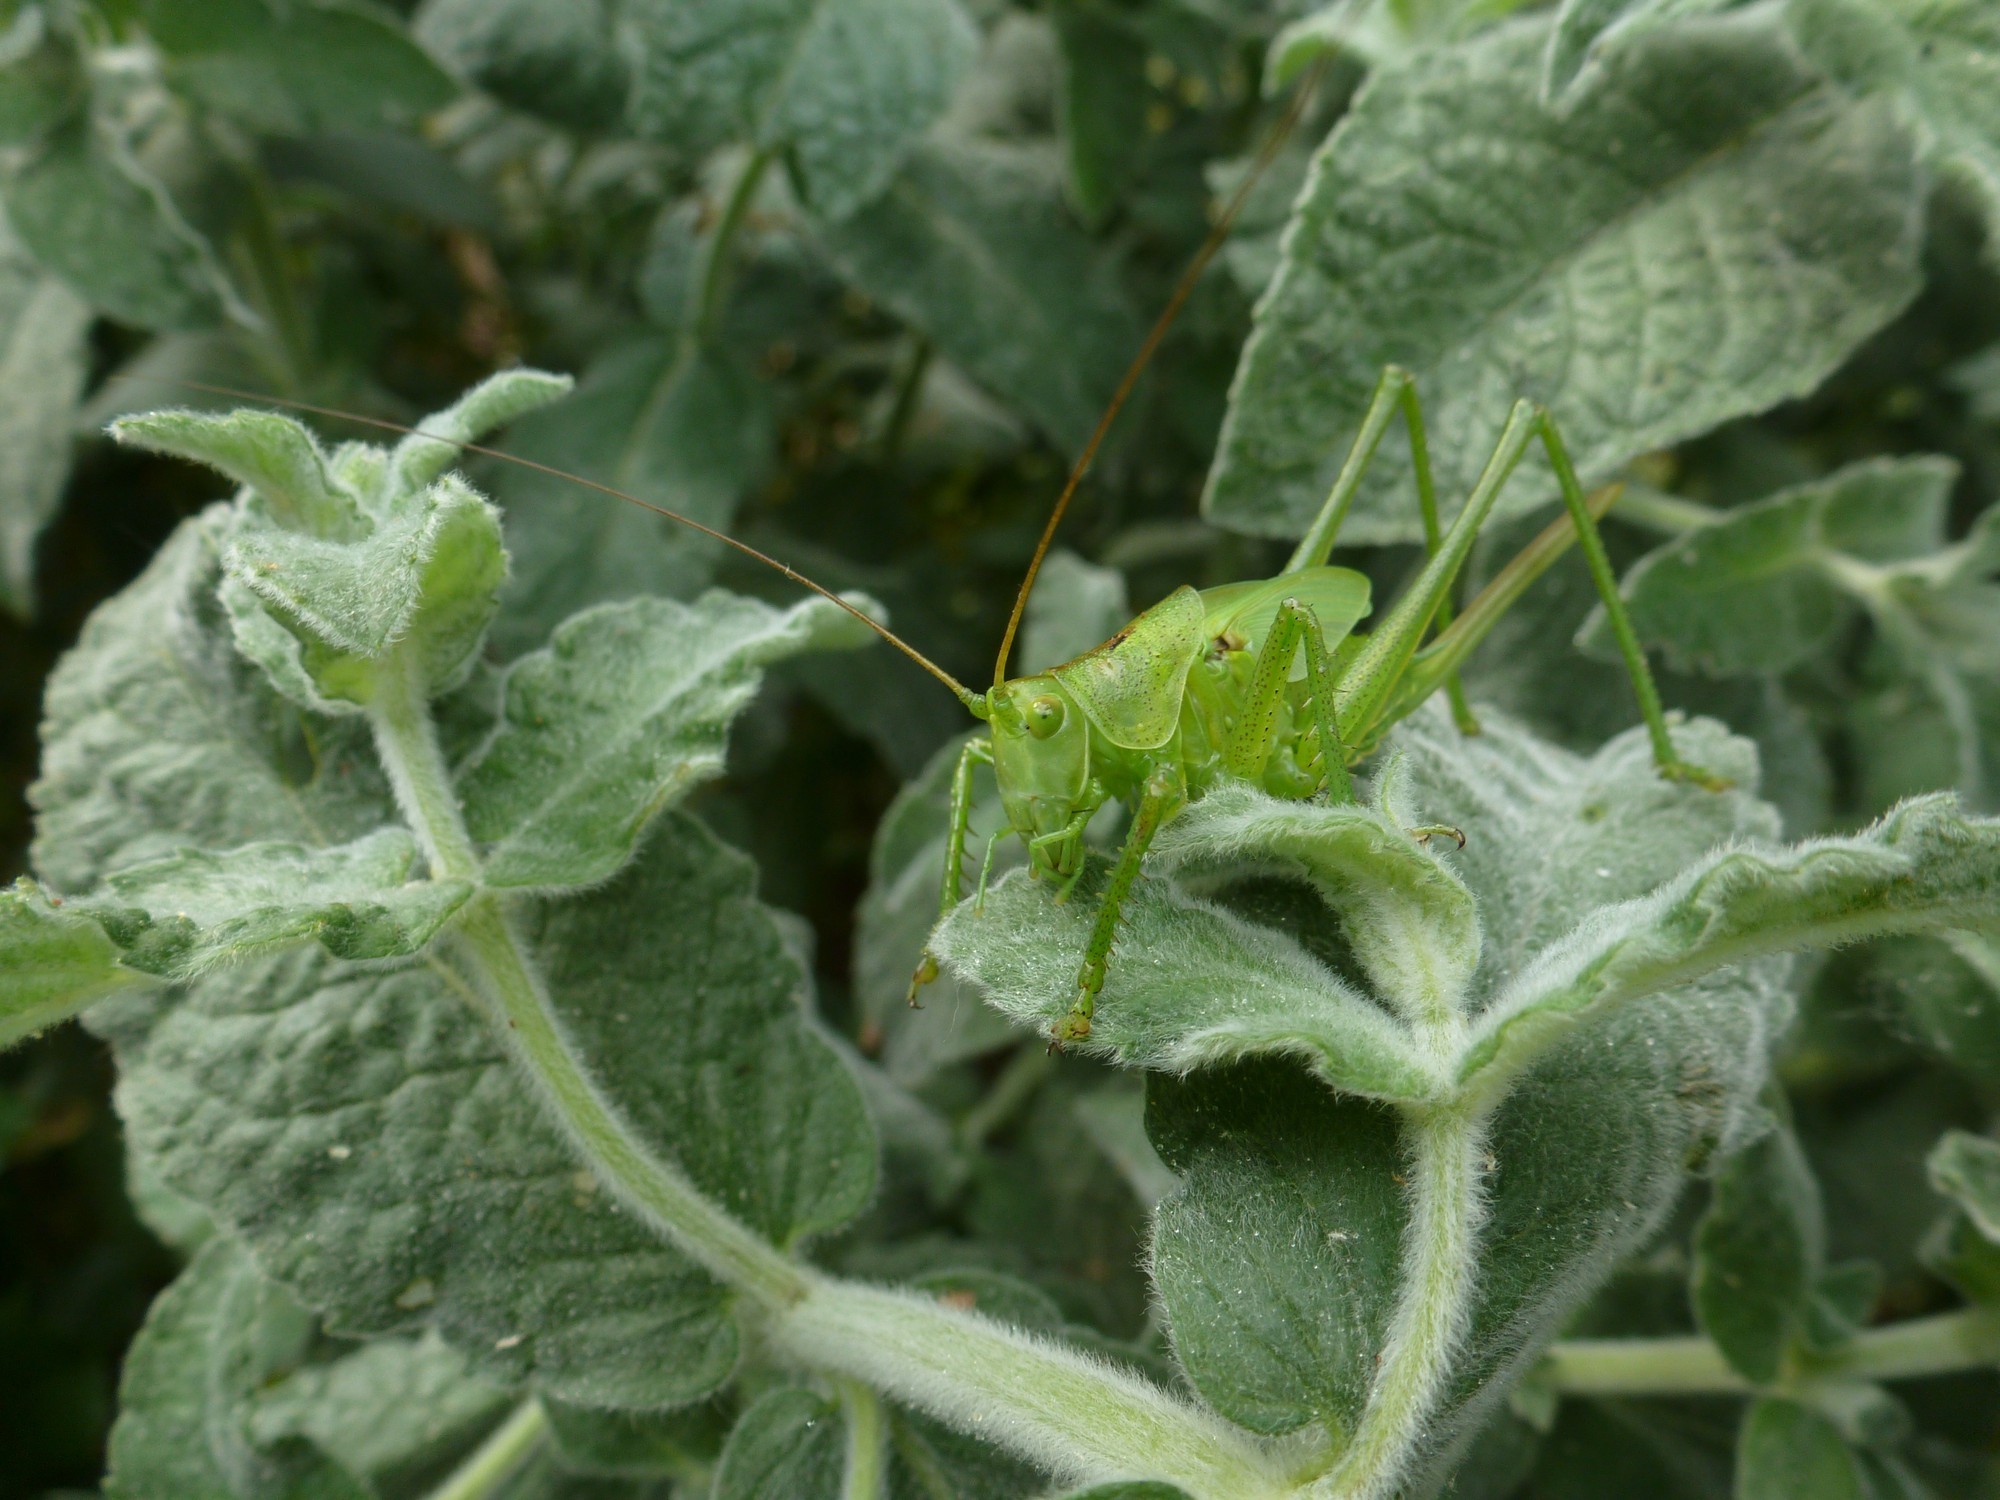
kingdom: Animalia
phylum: Arthropoda
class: Insecta
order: Orthoptera
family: Tettigoniidae
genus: Tettigonia
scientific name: Tettigonia viridissima
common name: Great green bush-cricket
